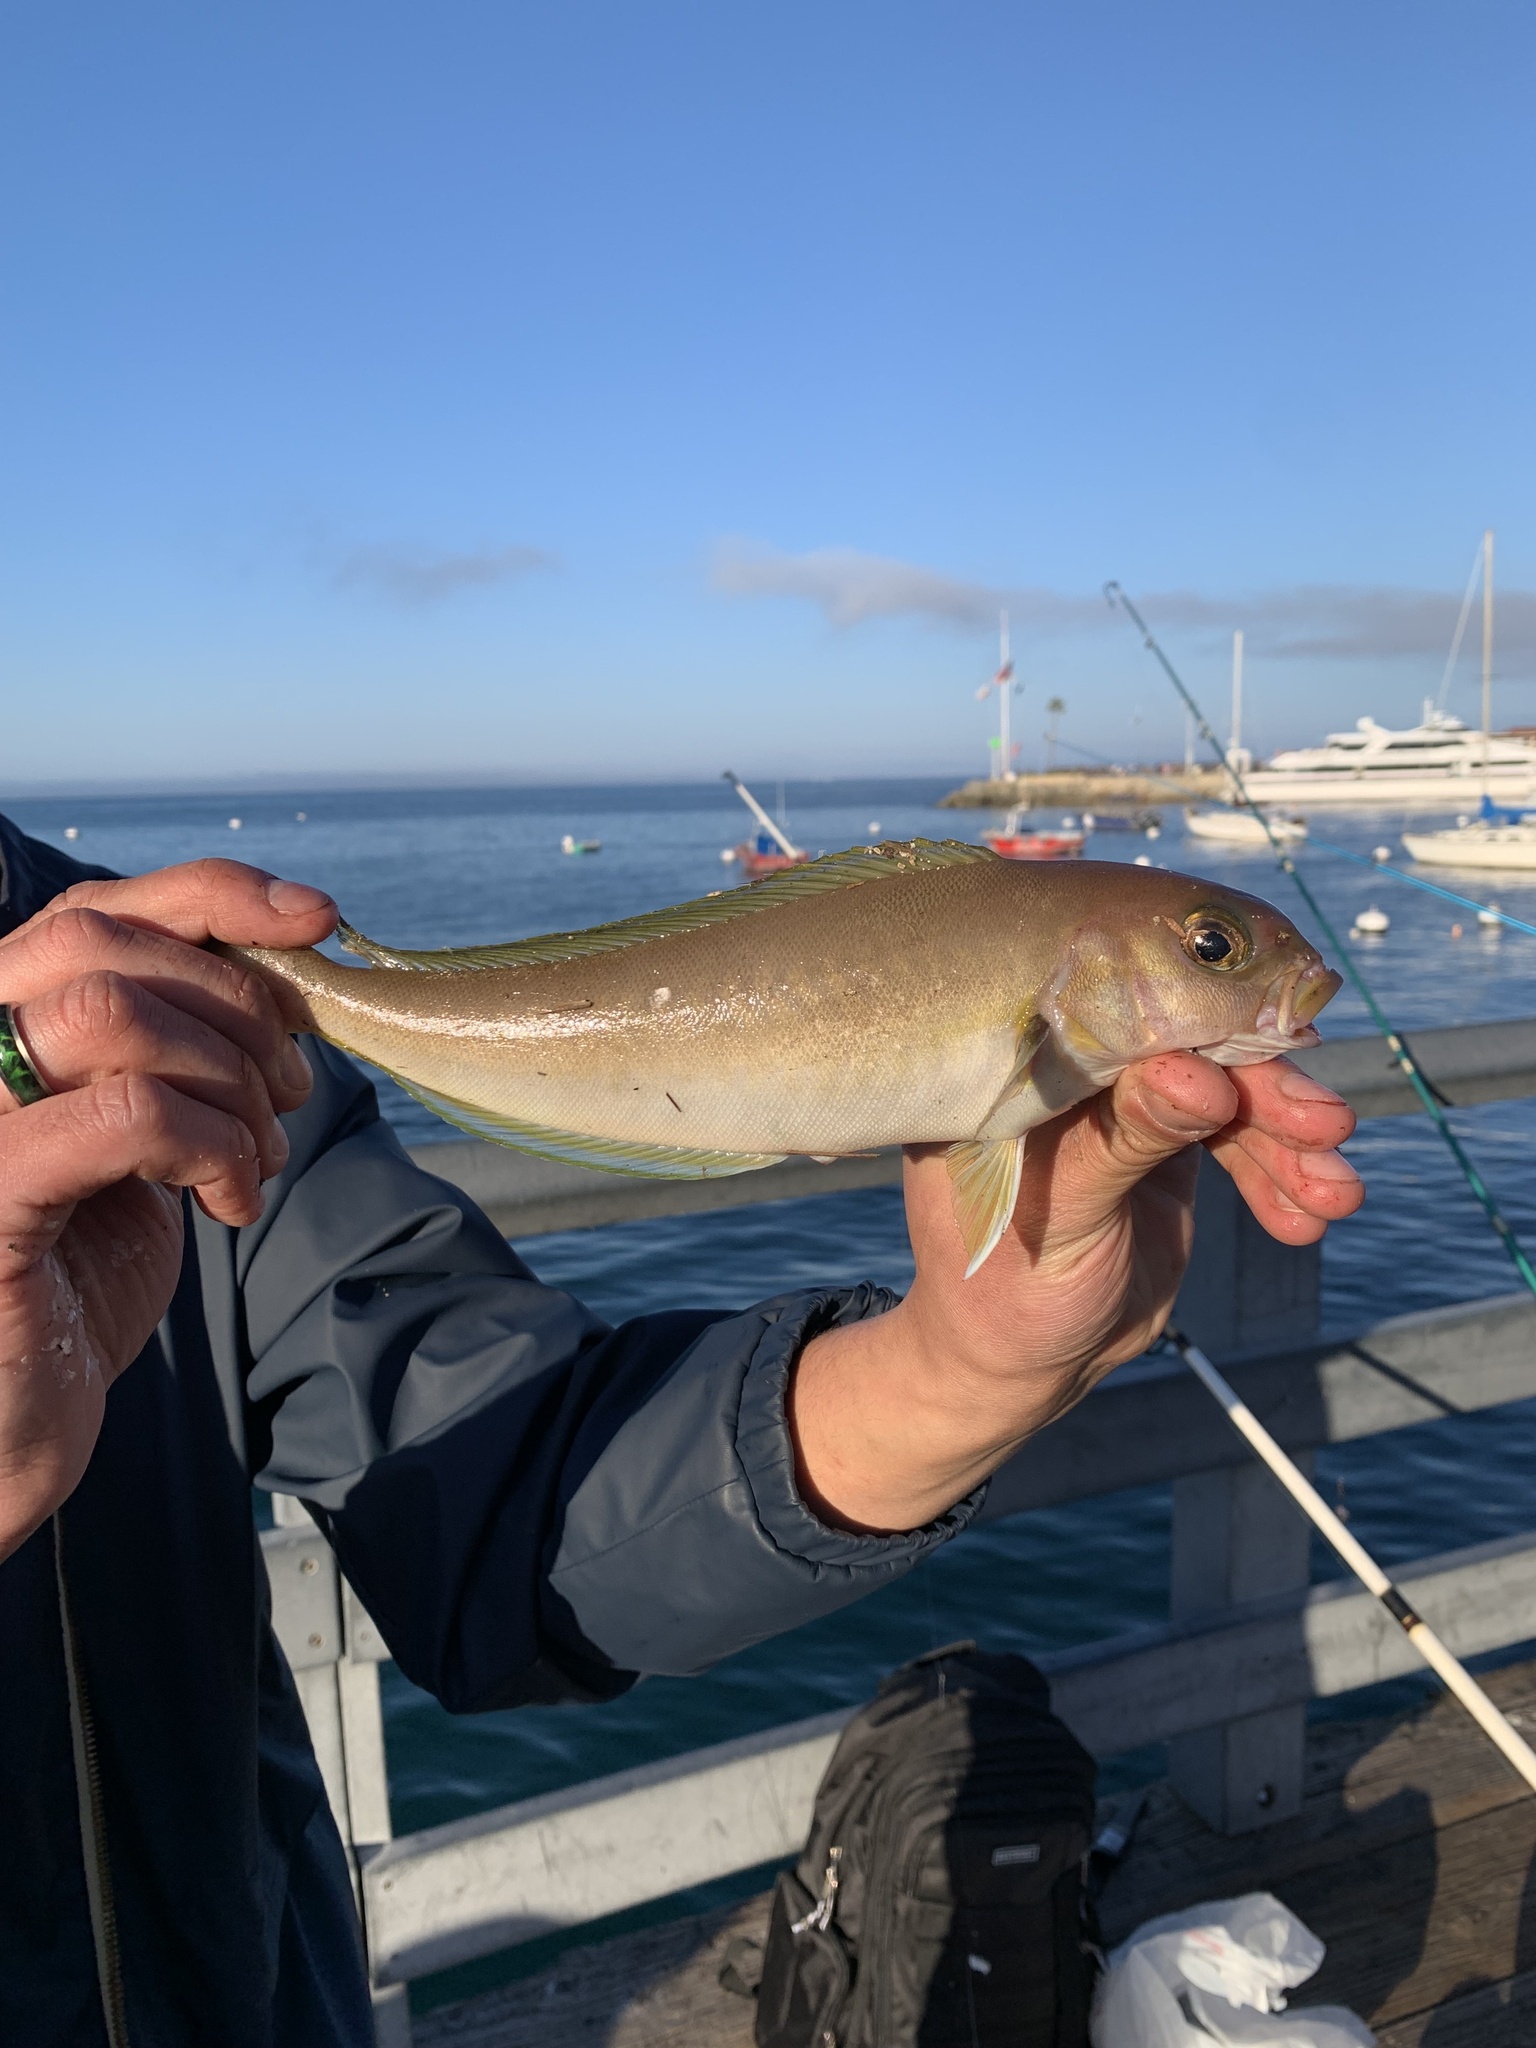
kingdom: Animalia
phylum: Chordata
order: Perciformes
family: Malacanthidae
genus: Caulolatilus
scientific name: Caulolatilus princeps
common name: Ocean whitefish
